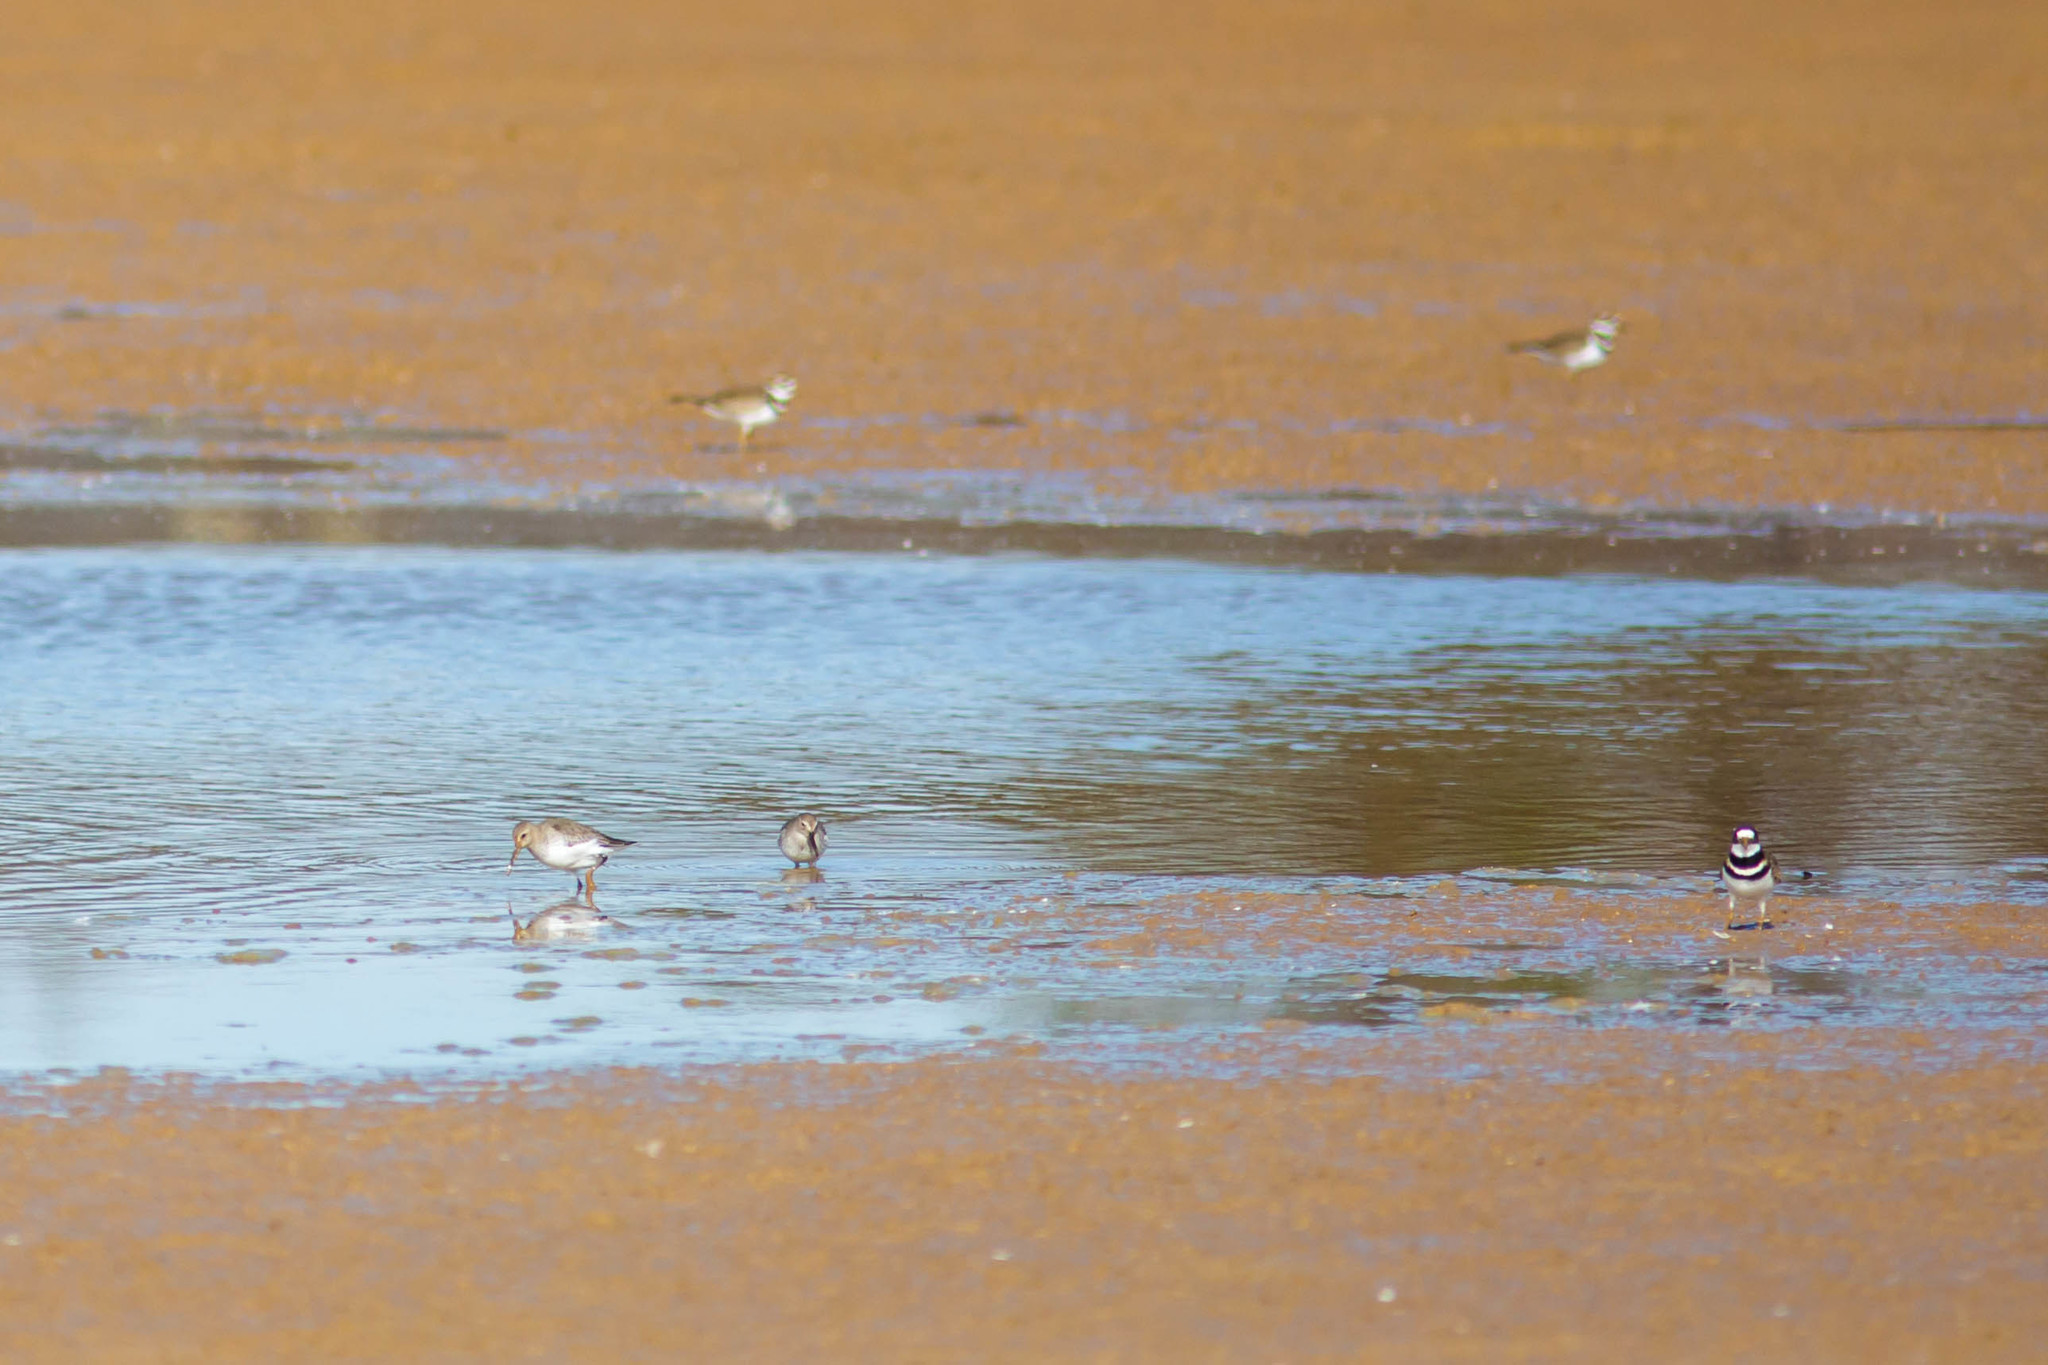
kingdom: Animalia
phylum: Chordata
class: Aves
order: Charadriiformes
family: Scolopacidae
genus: Calidris
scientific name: Calidris alpina
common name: Dunlin
